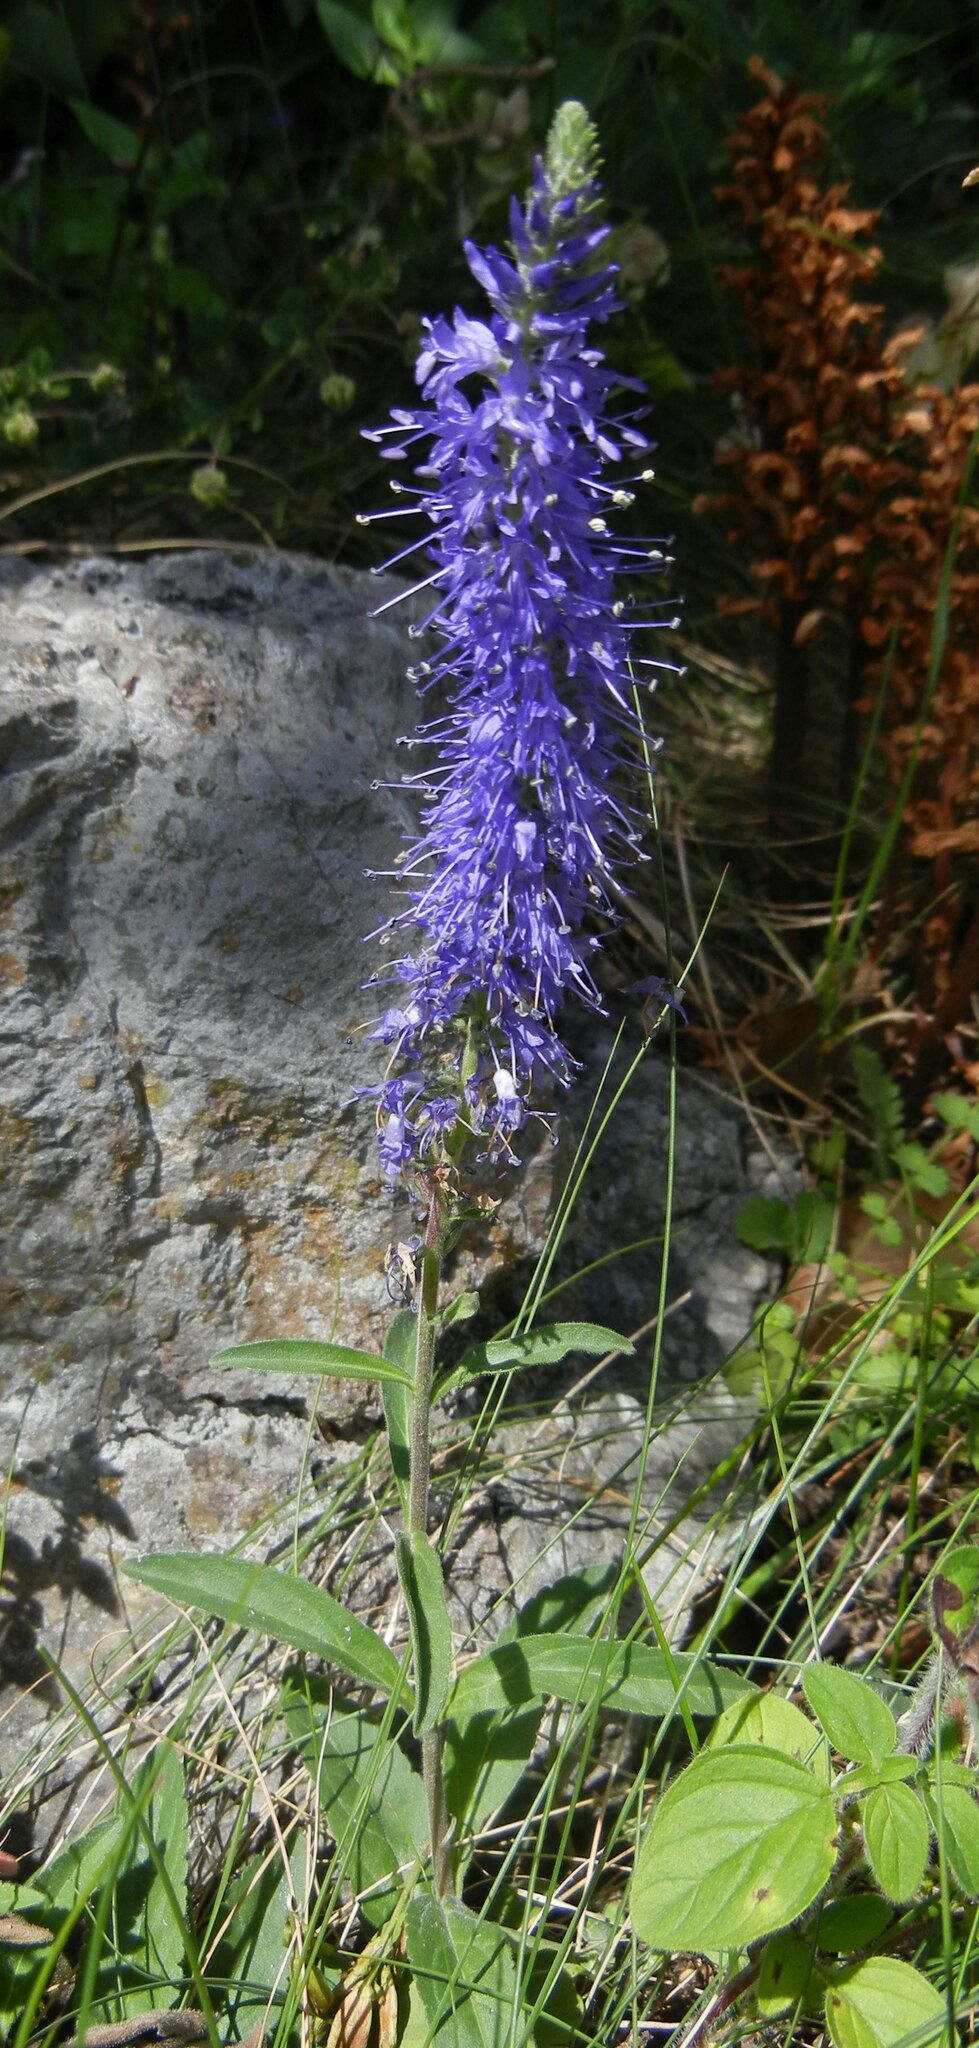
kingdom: Plantae
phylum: Tracheophyta
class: Magnoliopsida
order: Lamiales
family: Plantaginaceae
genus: Veronica
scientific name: Veronica spicata
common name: Spiked speedwell
